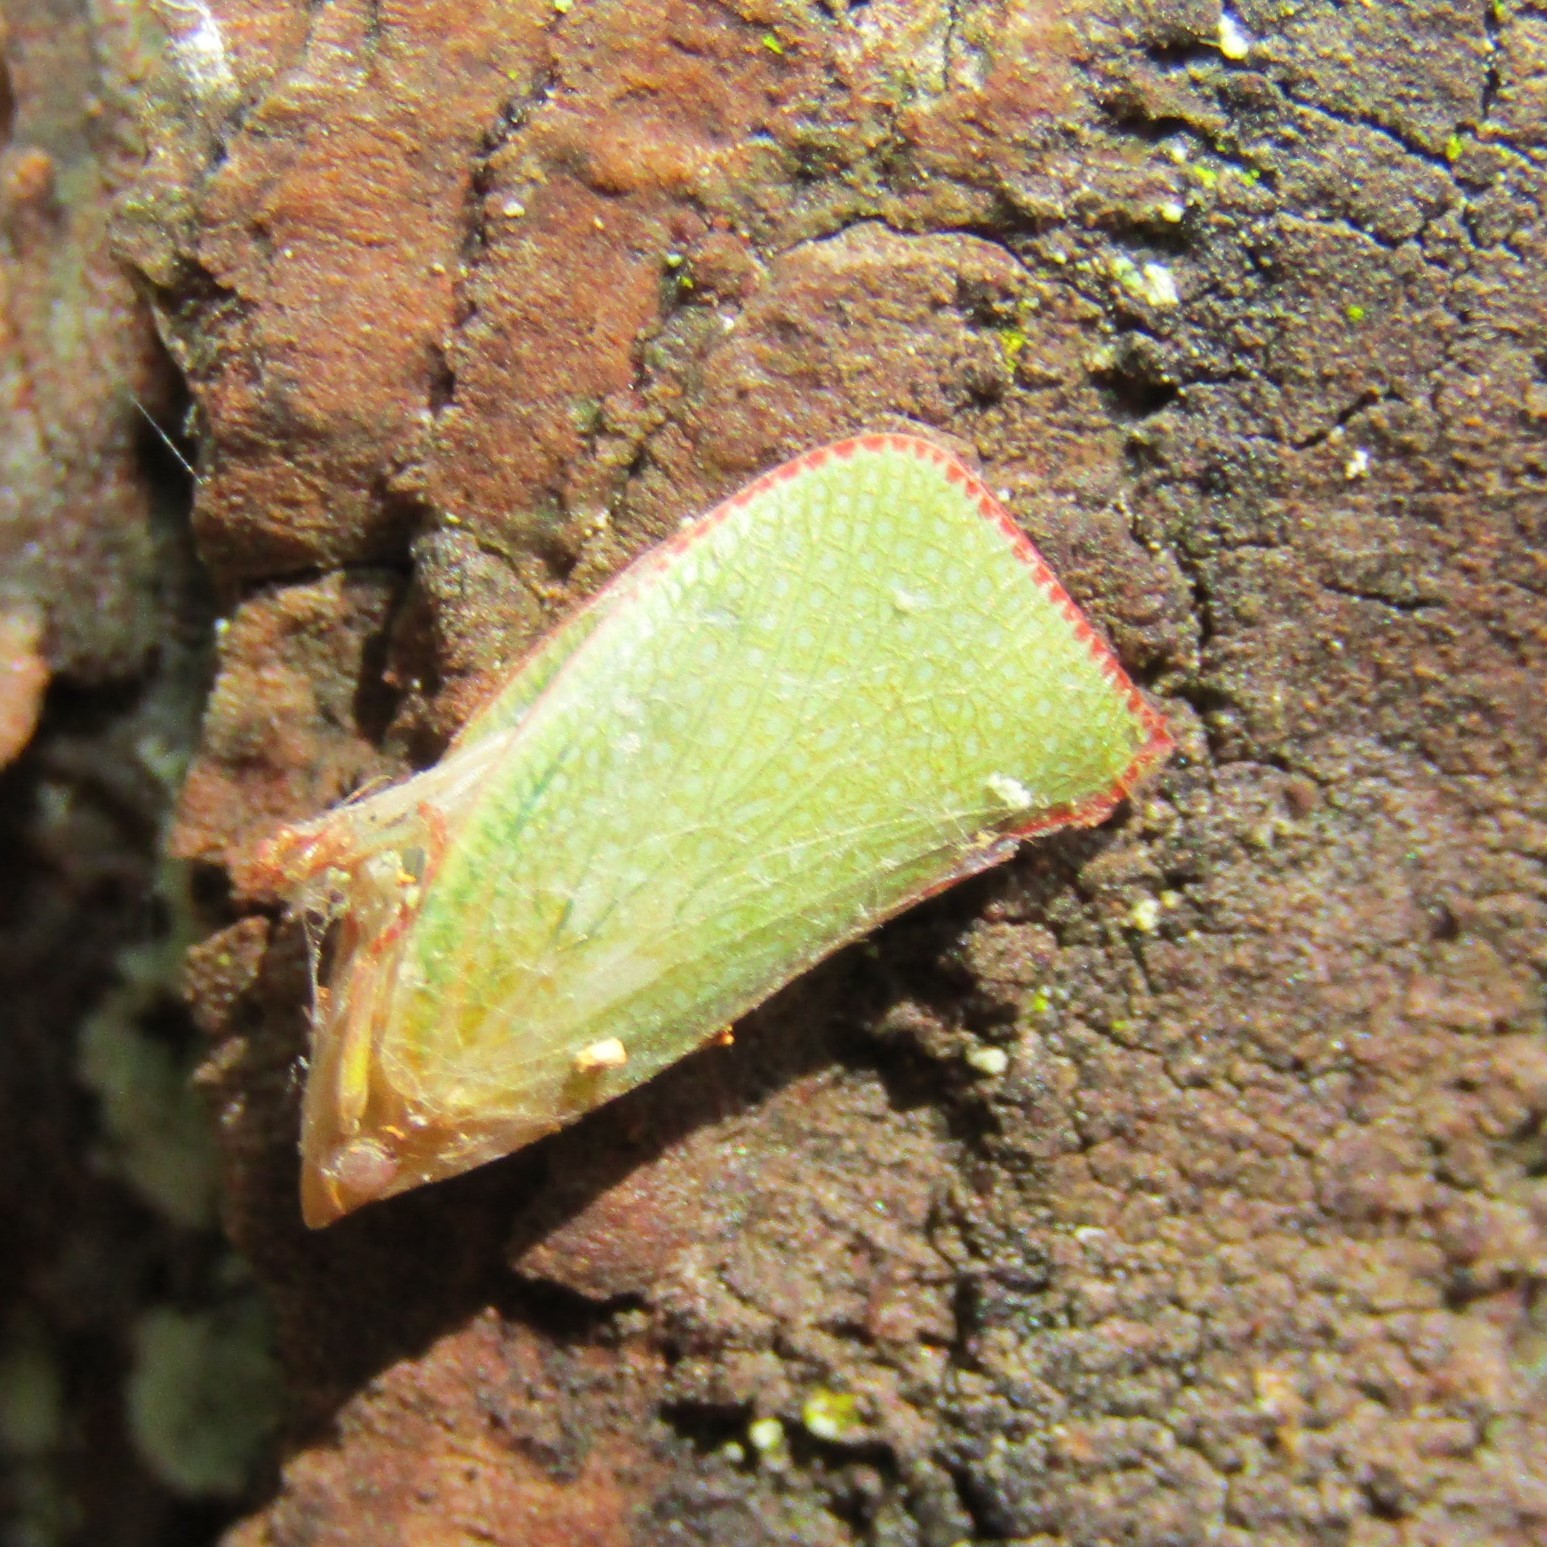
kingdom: Animalia
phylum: Arthropoda
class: Insecta
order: Hemiptera
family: Flatidae
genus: Siphanta
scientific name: Siphanta acuta
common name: Torpedo bug
